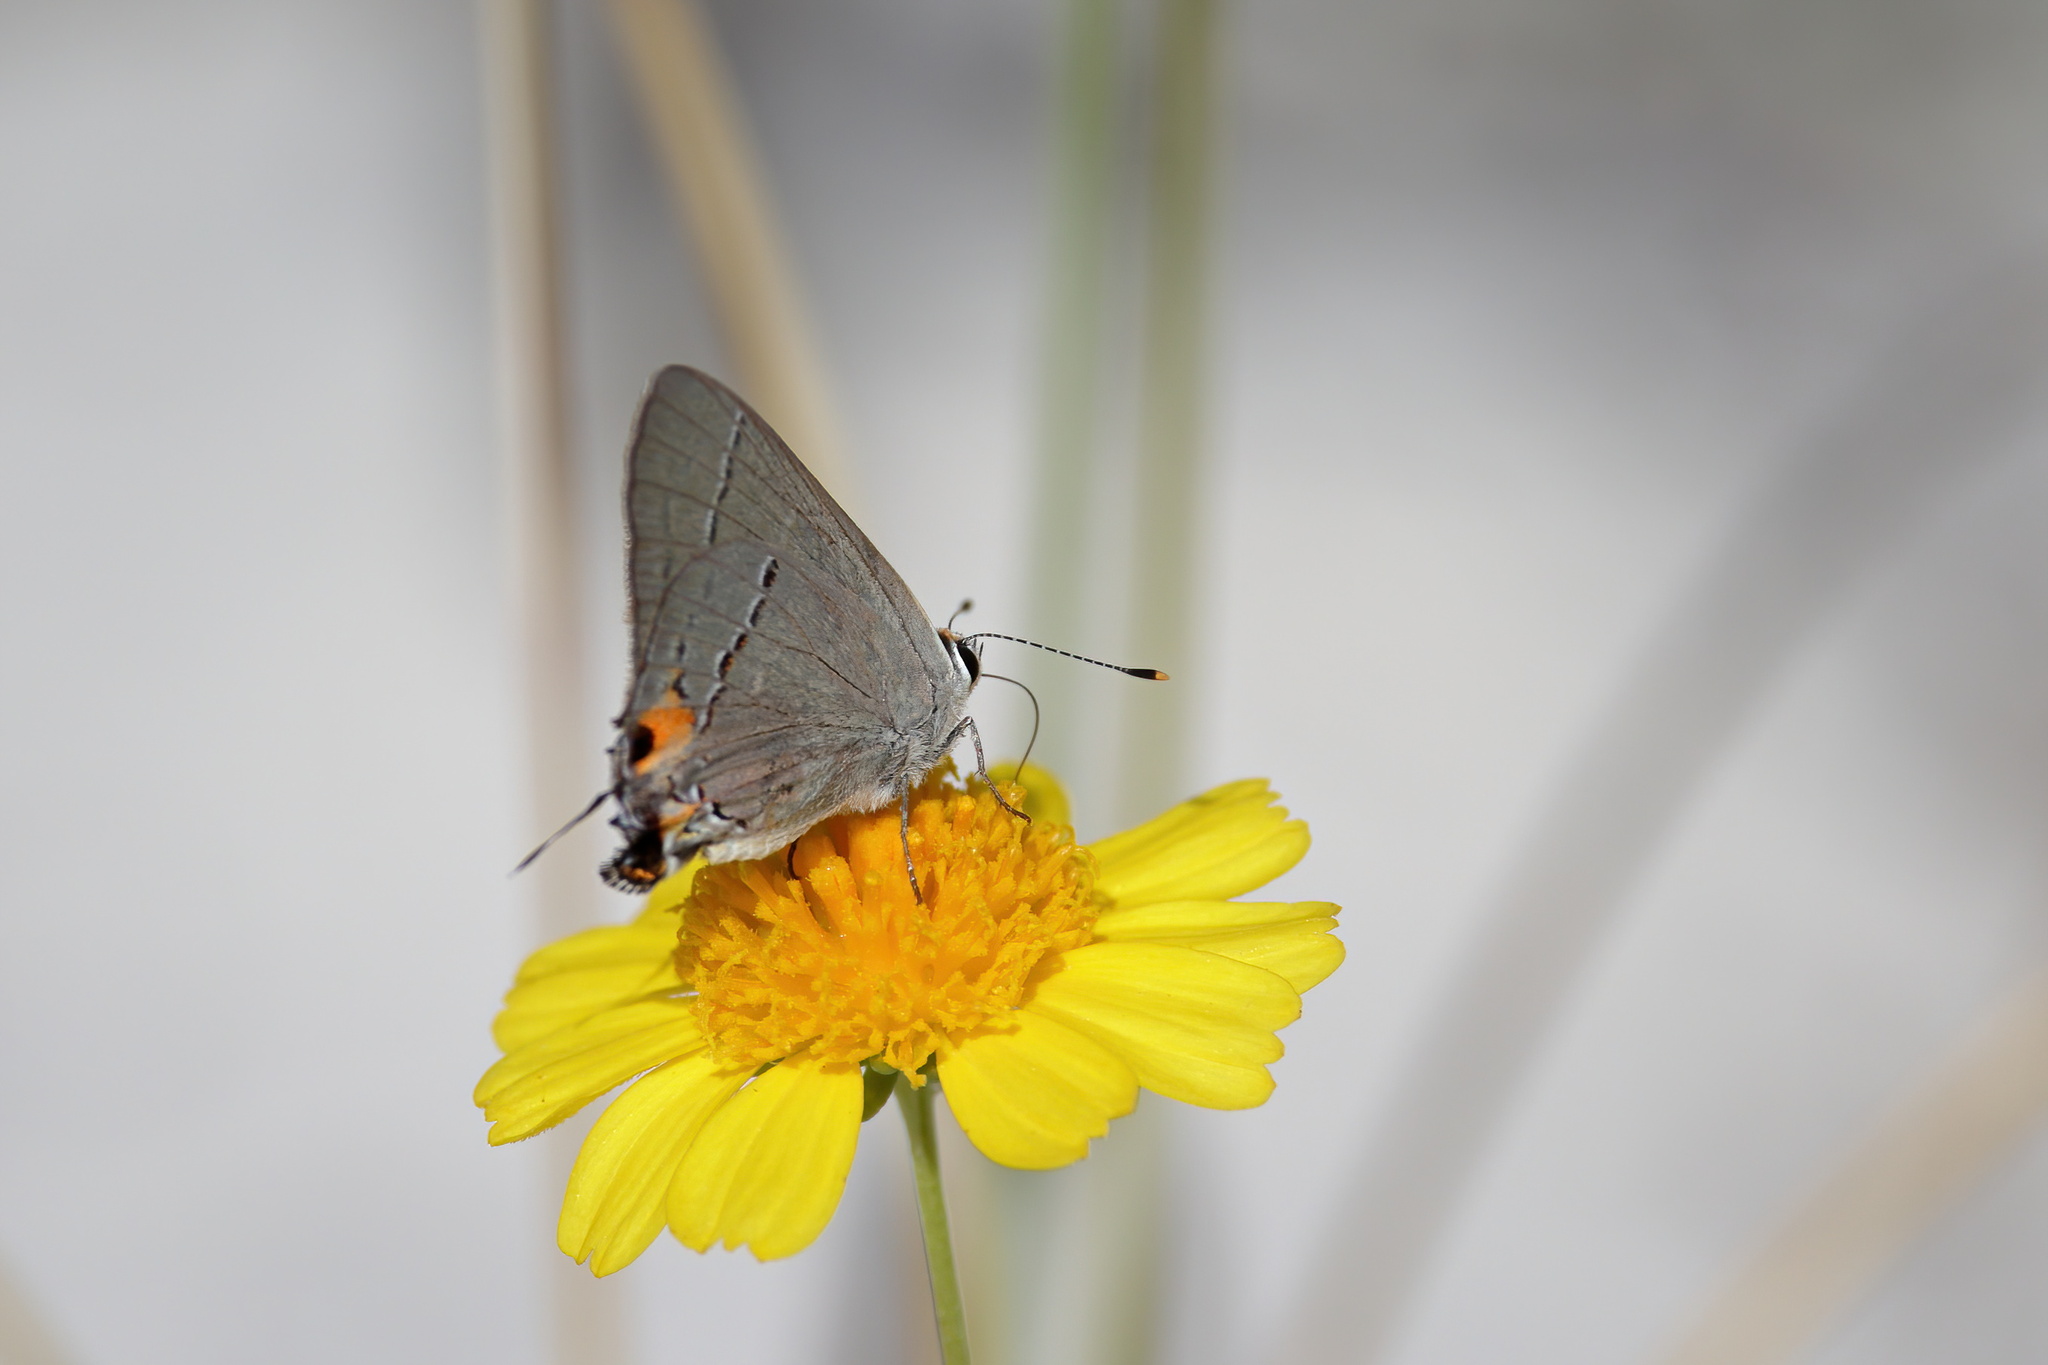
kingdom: Animalia
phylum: Arthropoda
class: Insecta
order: Lepidoptera
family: Lycaenidae
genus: Strymon
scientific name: Strymon melinus
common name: Gray hairstreak
